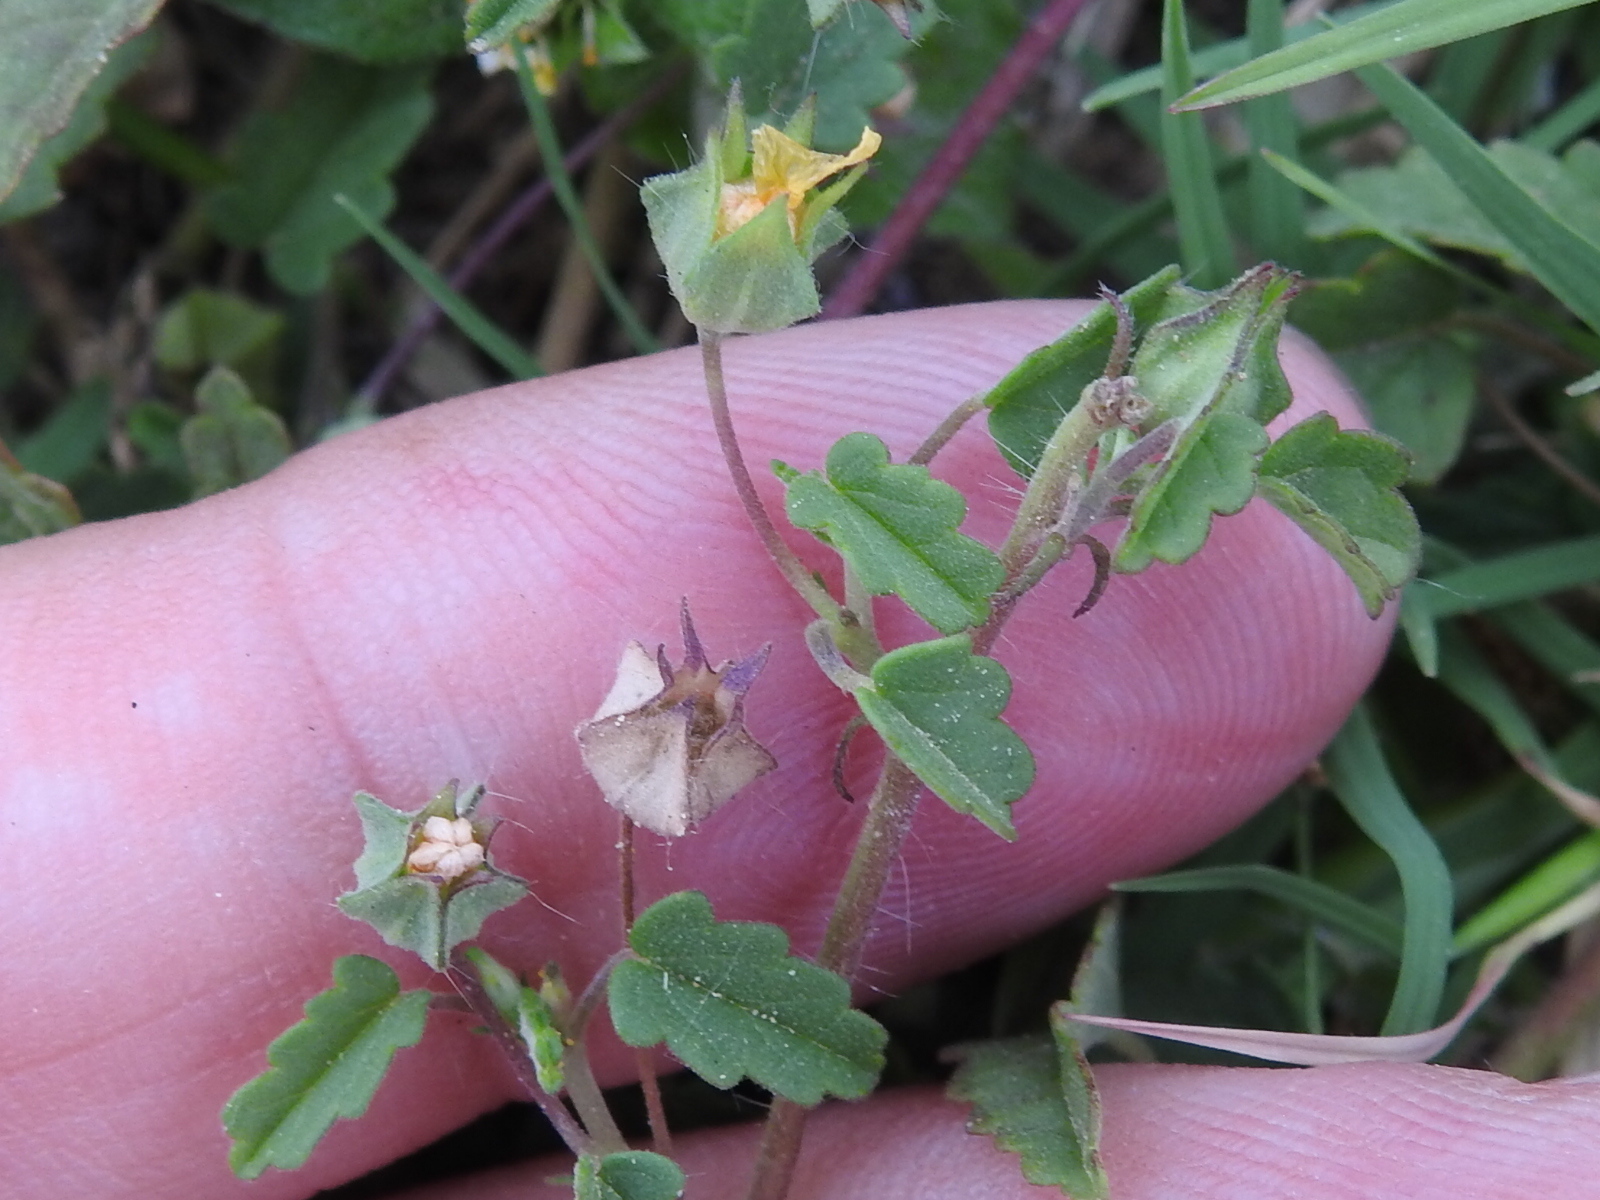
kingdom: Plantae
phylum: Tracheophyta
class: Magnoliopsida
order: Malvales
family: Malvaceae
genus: Sida
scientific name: Sida abutilifolia
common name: Spreading fanpetals
